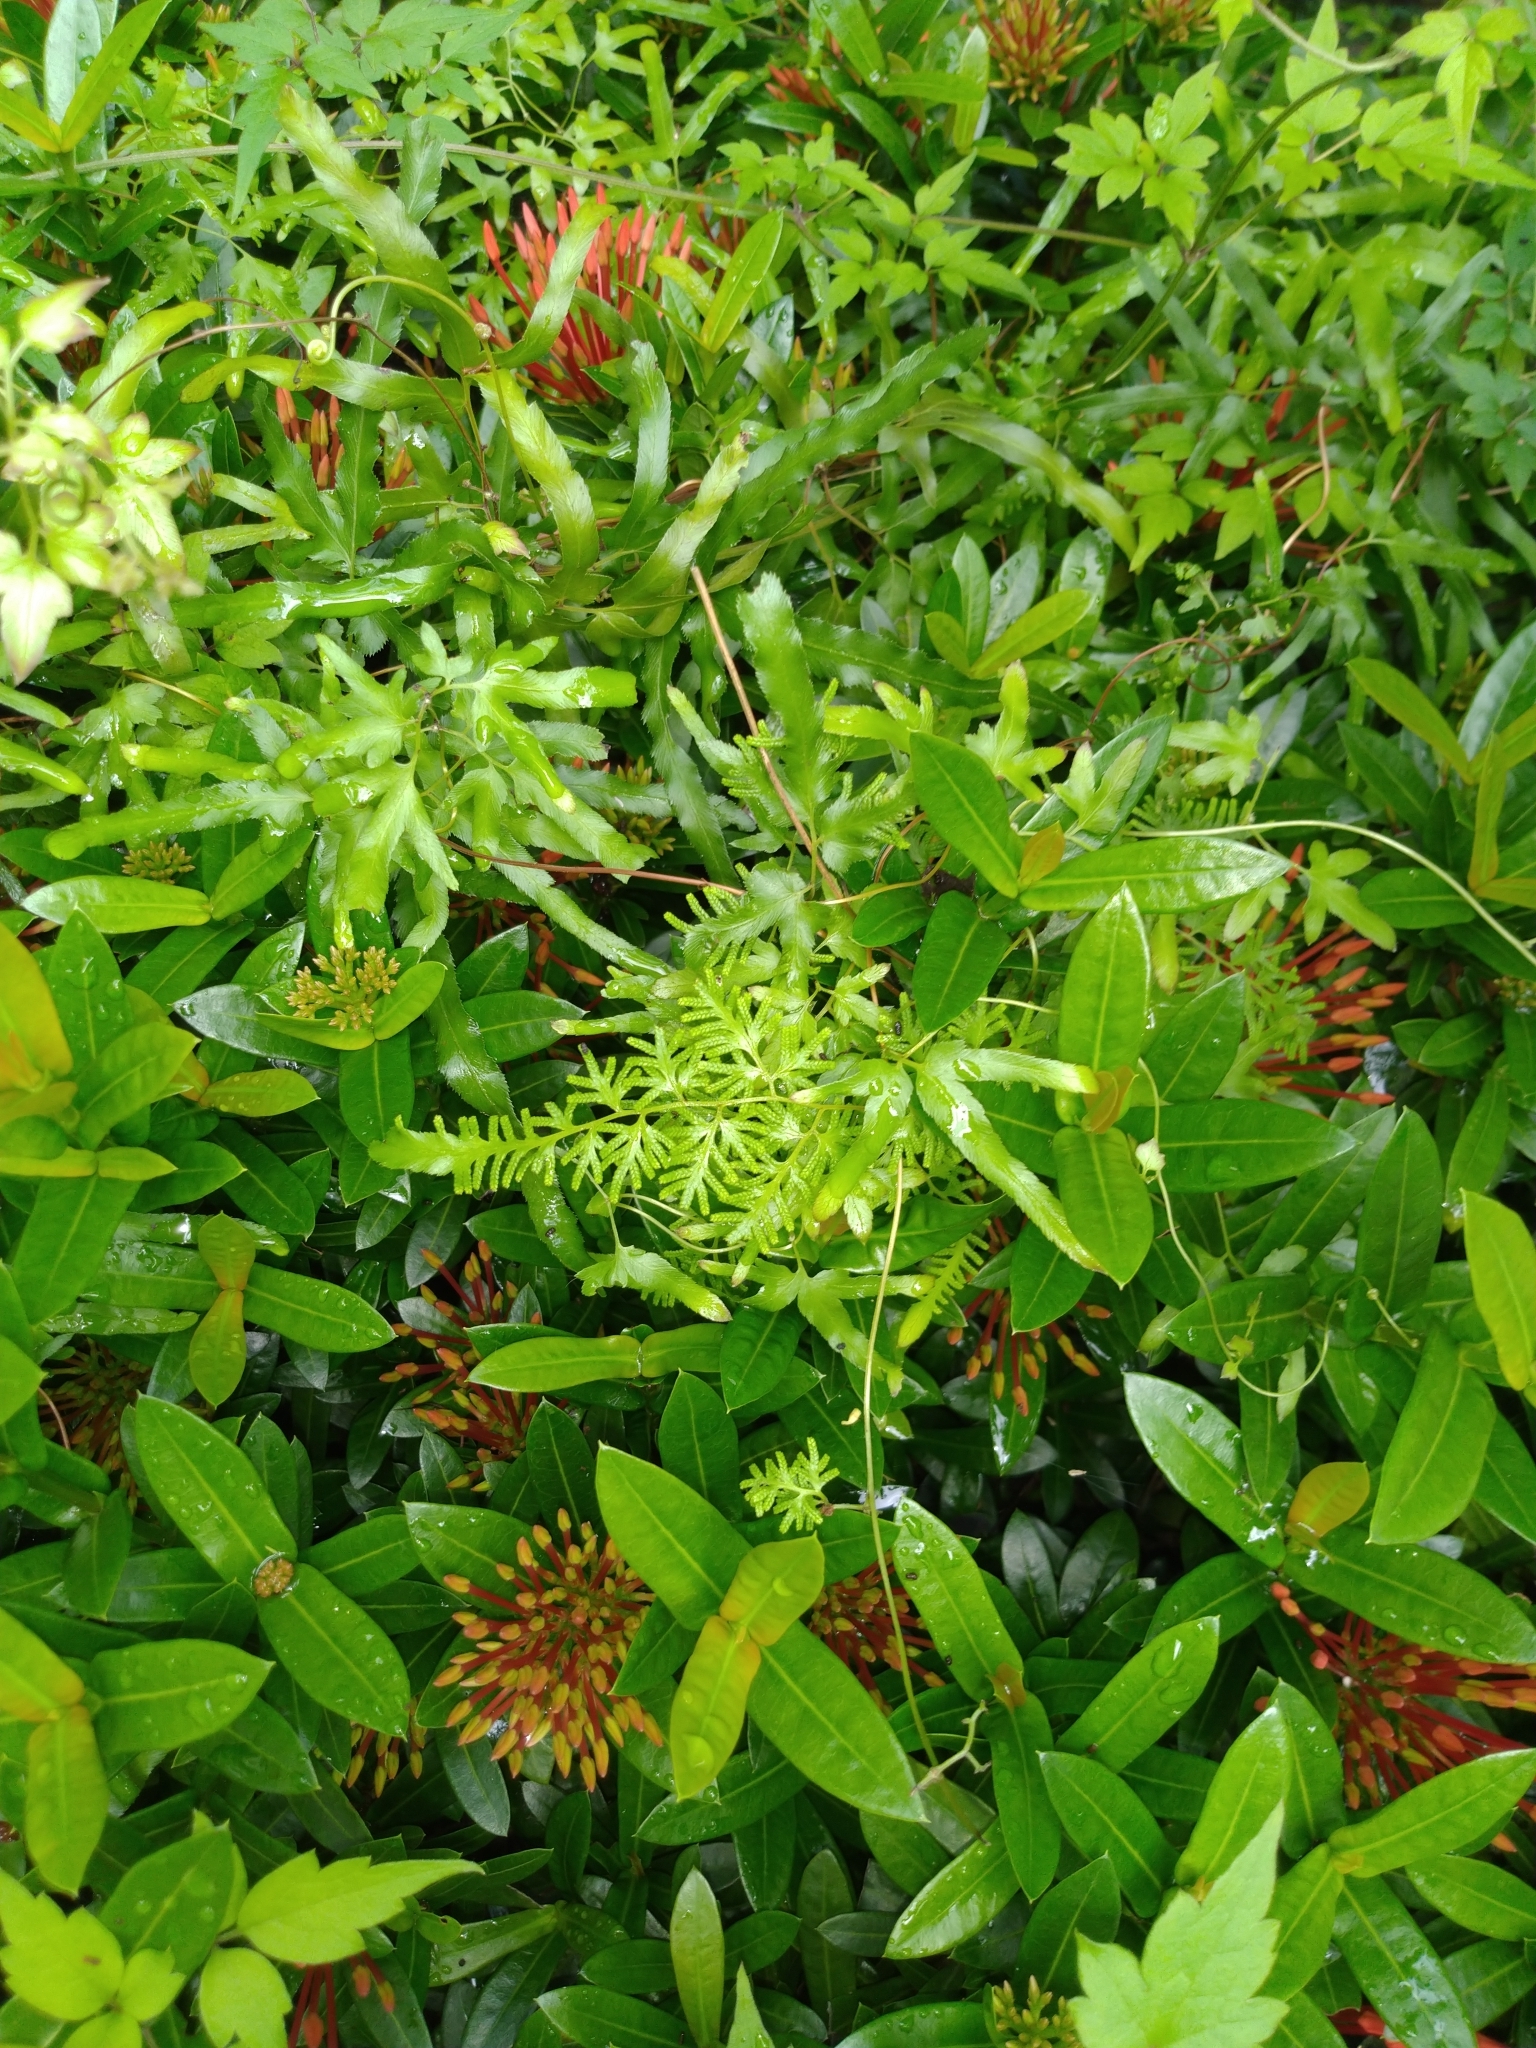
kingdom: Plantae
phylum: Tracheophyta
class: Polypodiopsida
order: Schizaeales
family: Lygodiaceae
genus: Lygodium
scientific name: Lygodium japonicum
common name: Japanese climbing fern
